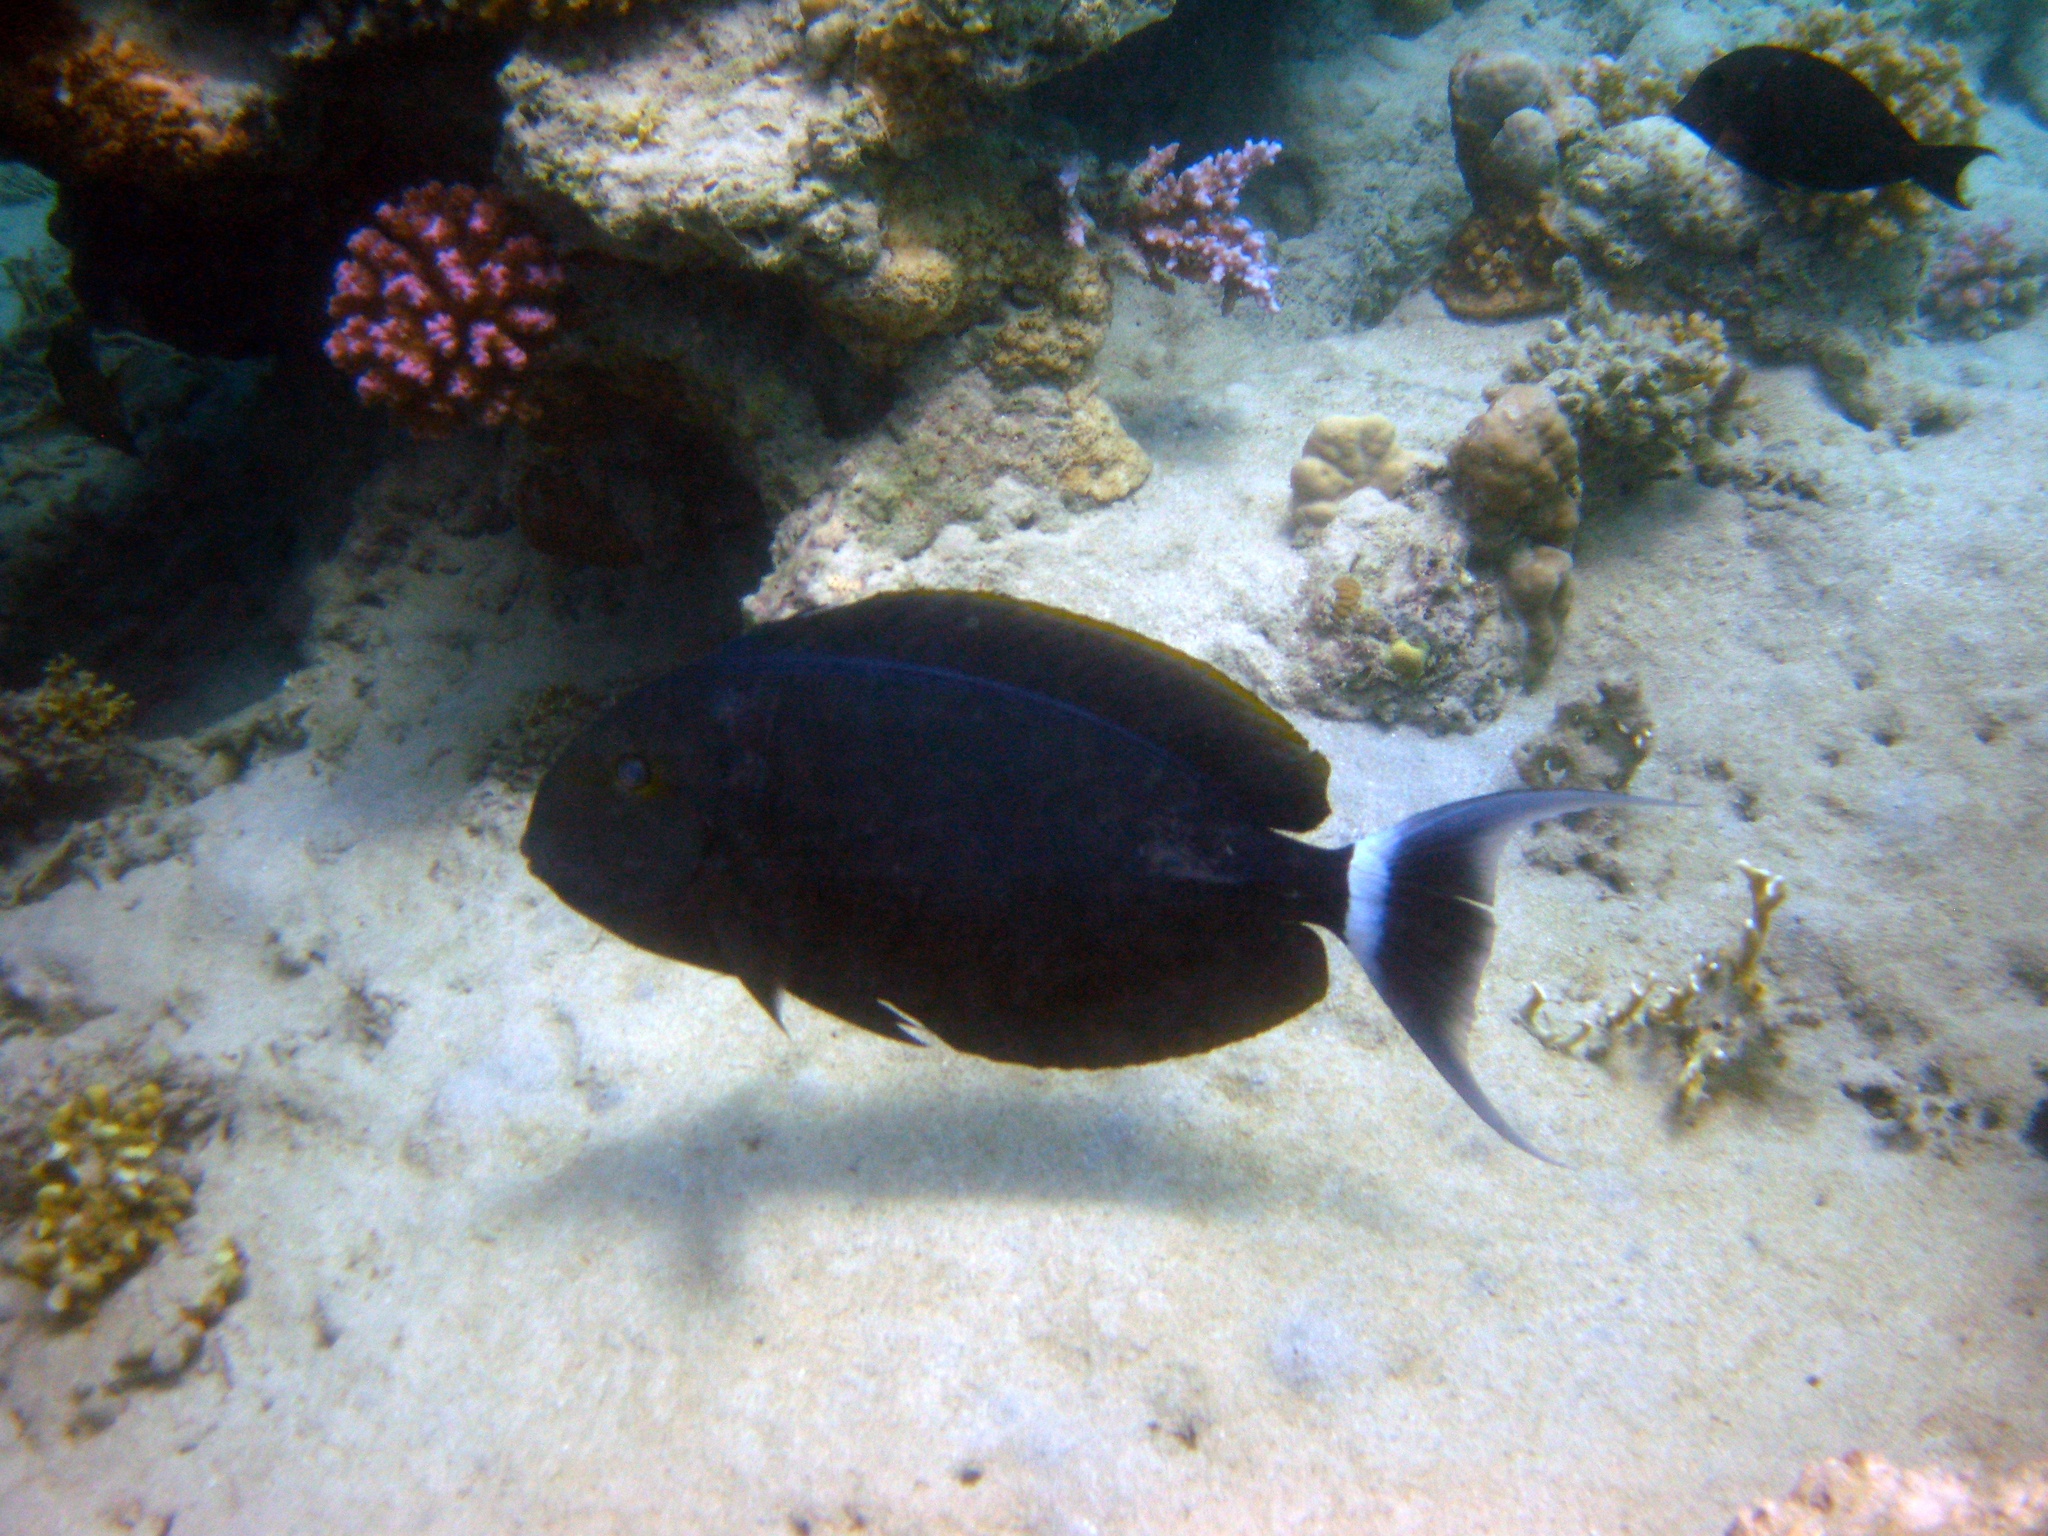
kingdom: Animalia
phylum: Chordata
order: Perciformes
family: Acanthuridae
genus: Acanthurus
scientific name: Acanthurus gahhm
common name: Black surgeonfish
